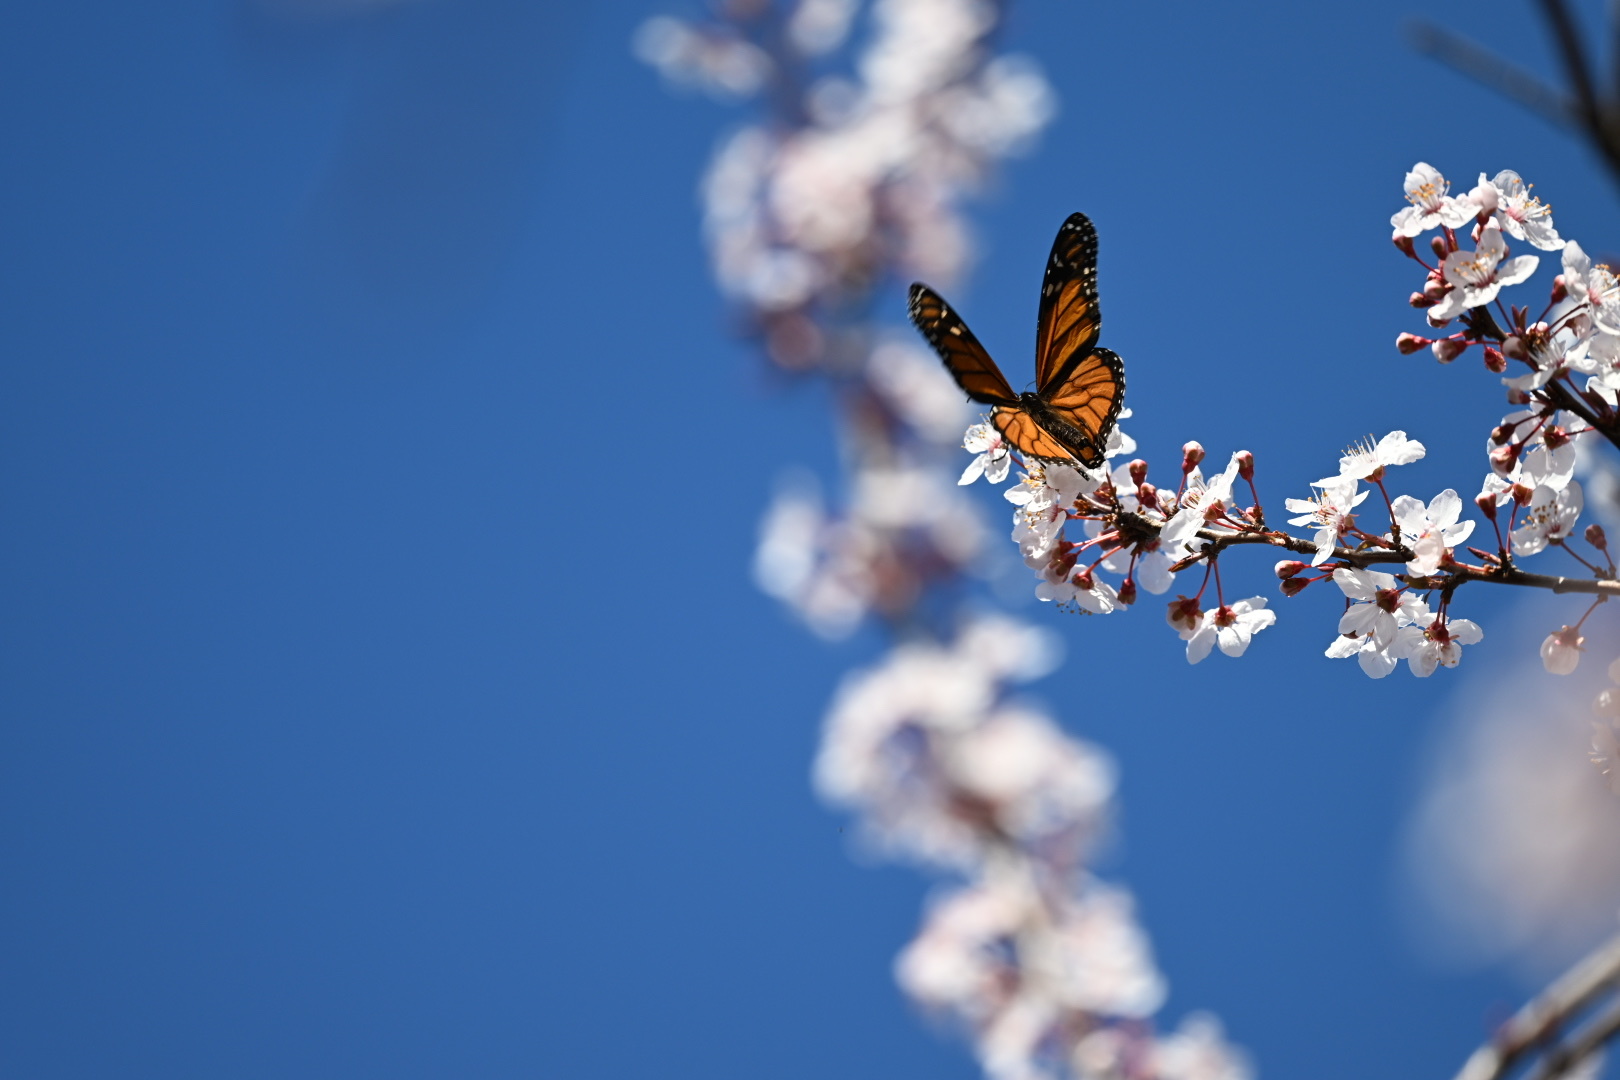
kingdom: Animalia
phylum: Arthropoda
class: Insecta
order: Lepidoptera
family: Nymphalidae
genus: Danaus
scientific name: Danaus plexippus
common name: Monarch
